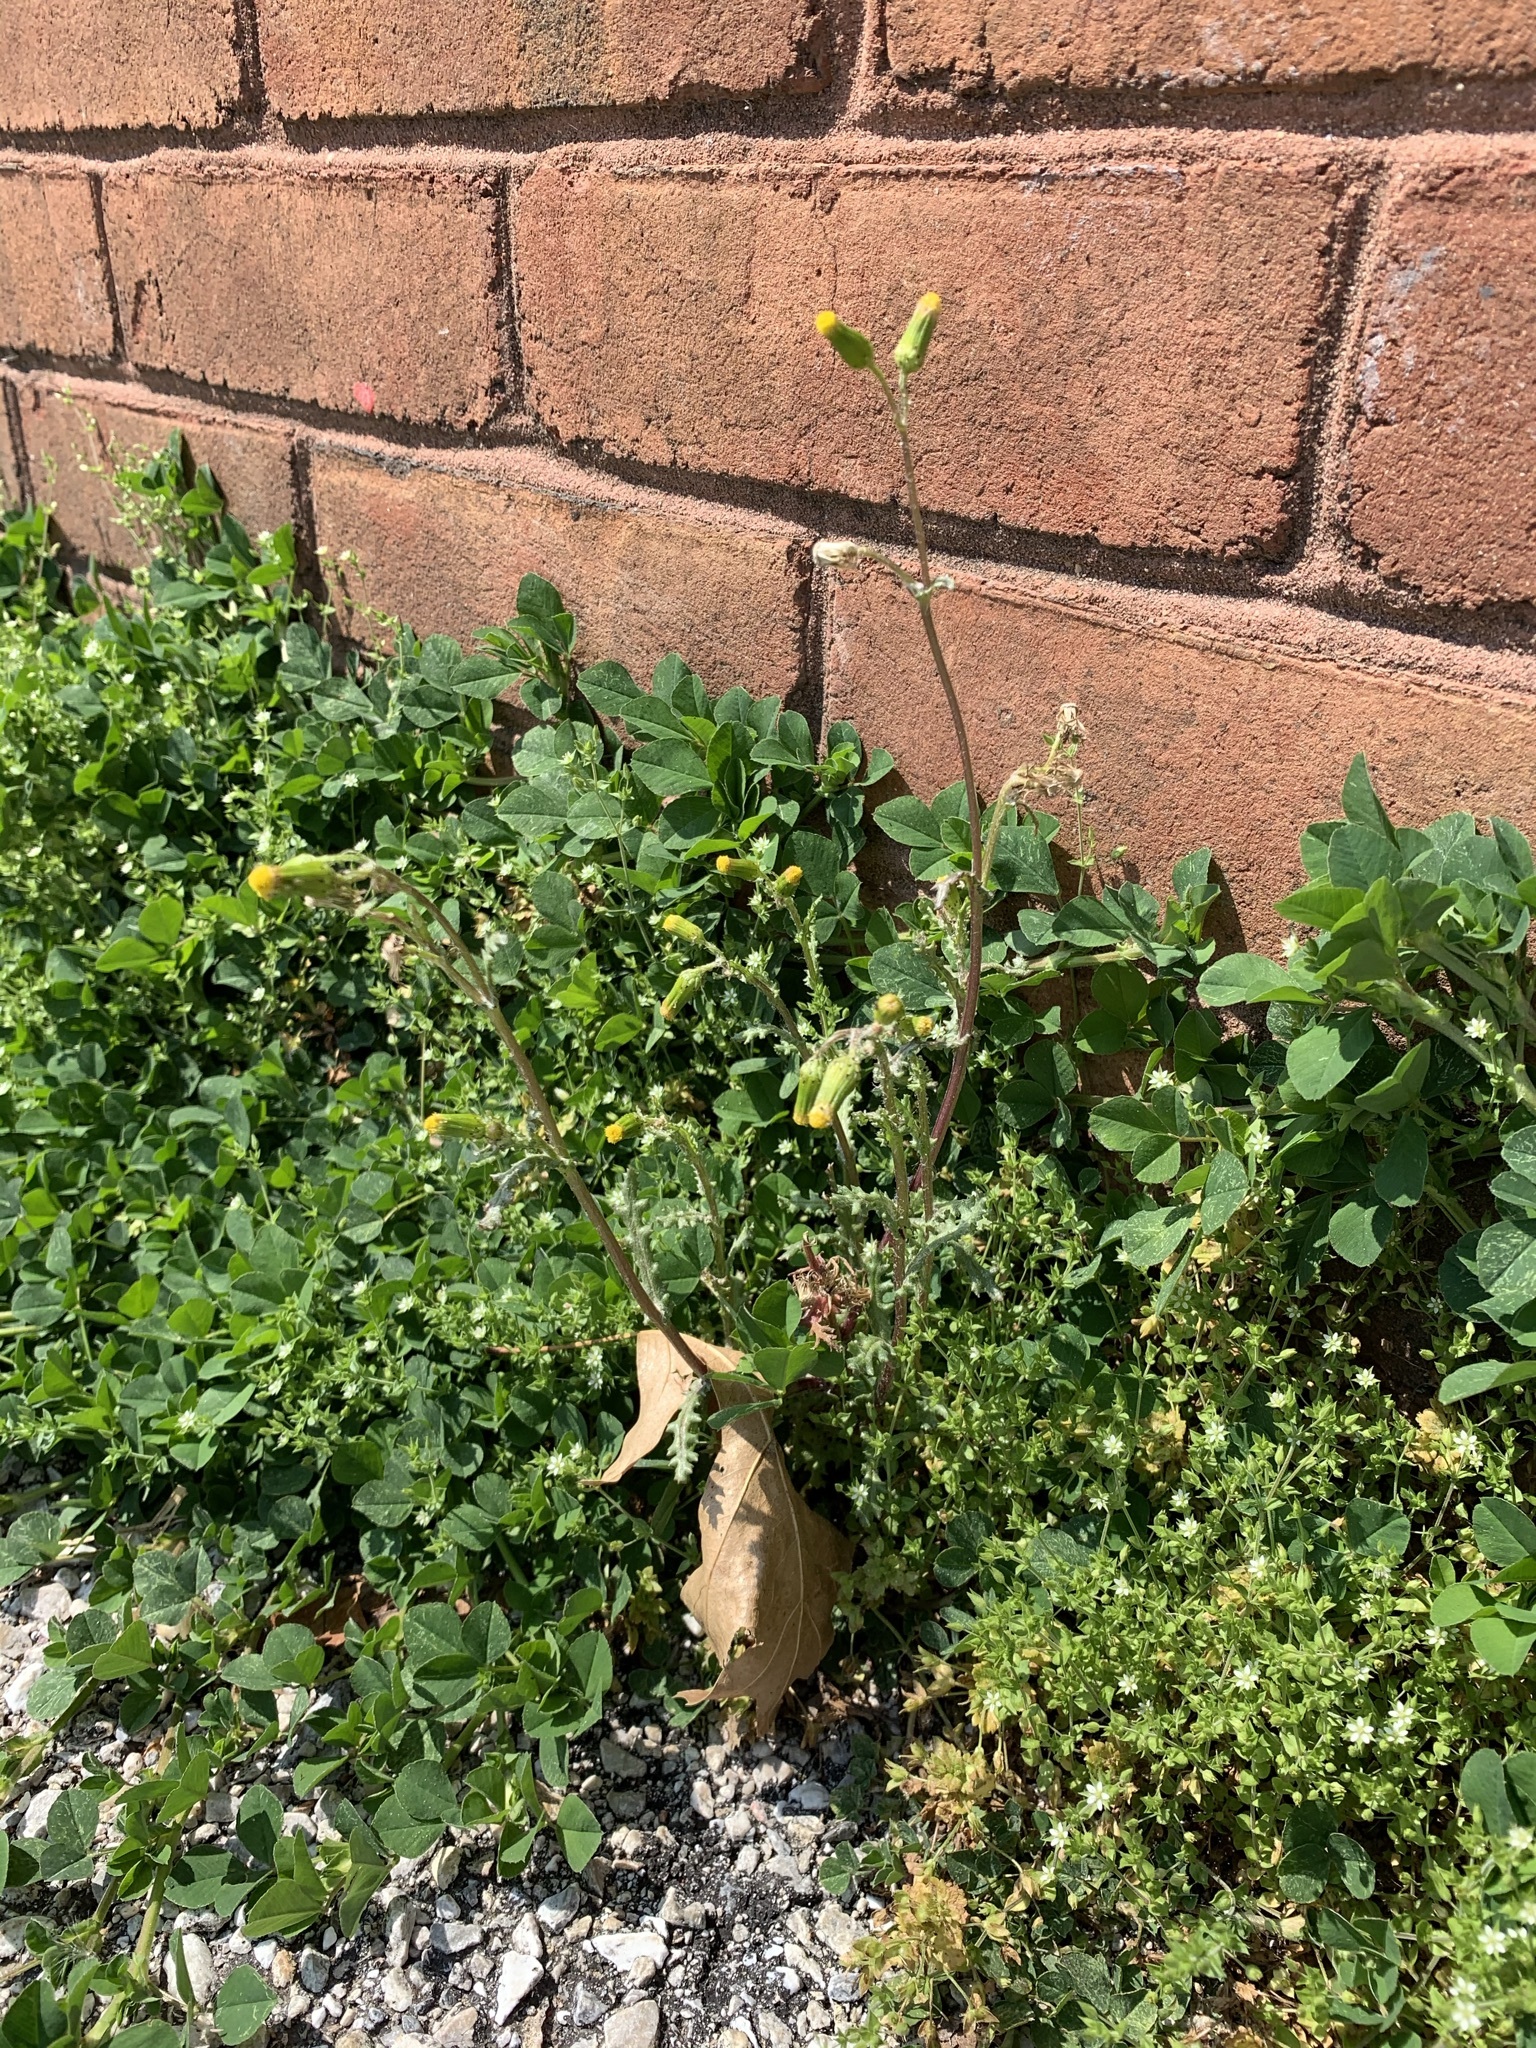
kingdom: Plantae
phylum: Tracheophyta
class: Magnoliopsida
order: Asterales
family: Asteraceae
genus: Senecio
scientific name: Senecio vulgaris
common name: Old-man-in-the-spring
